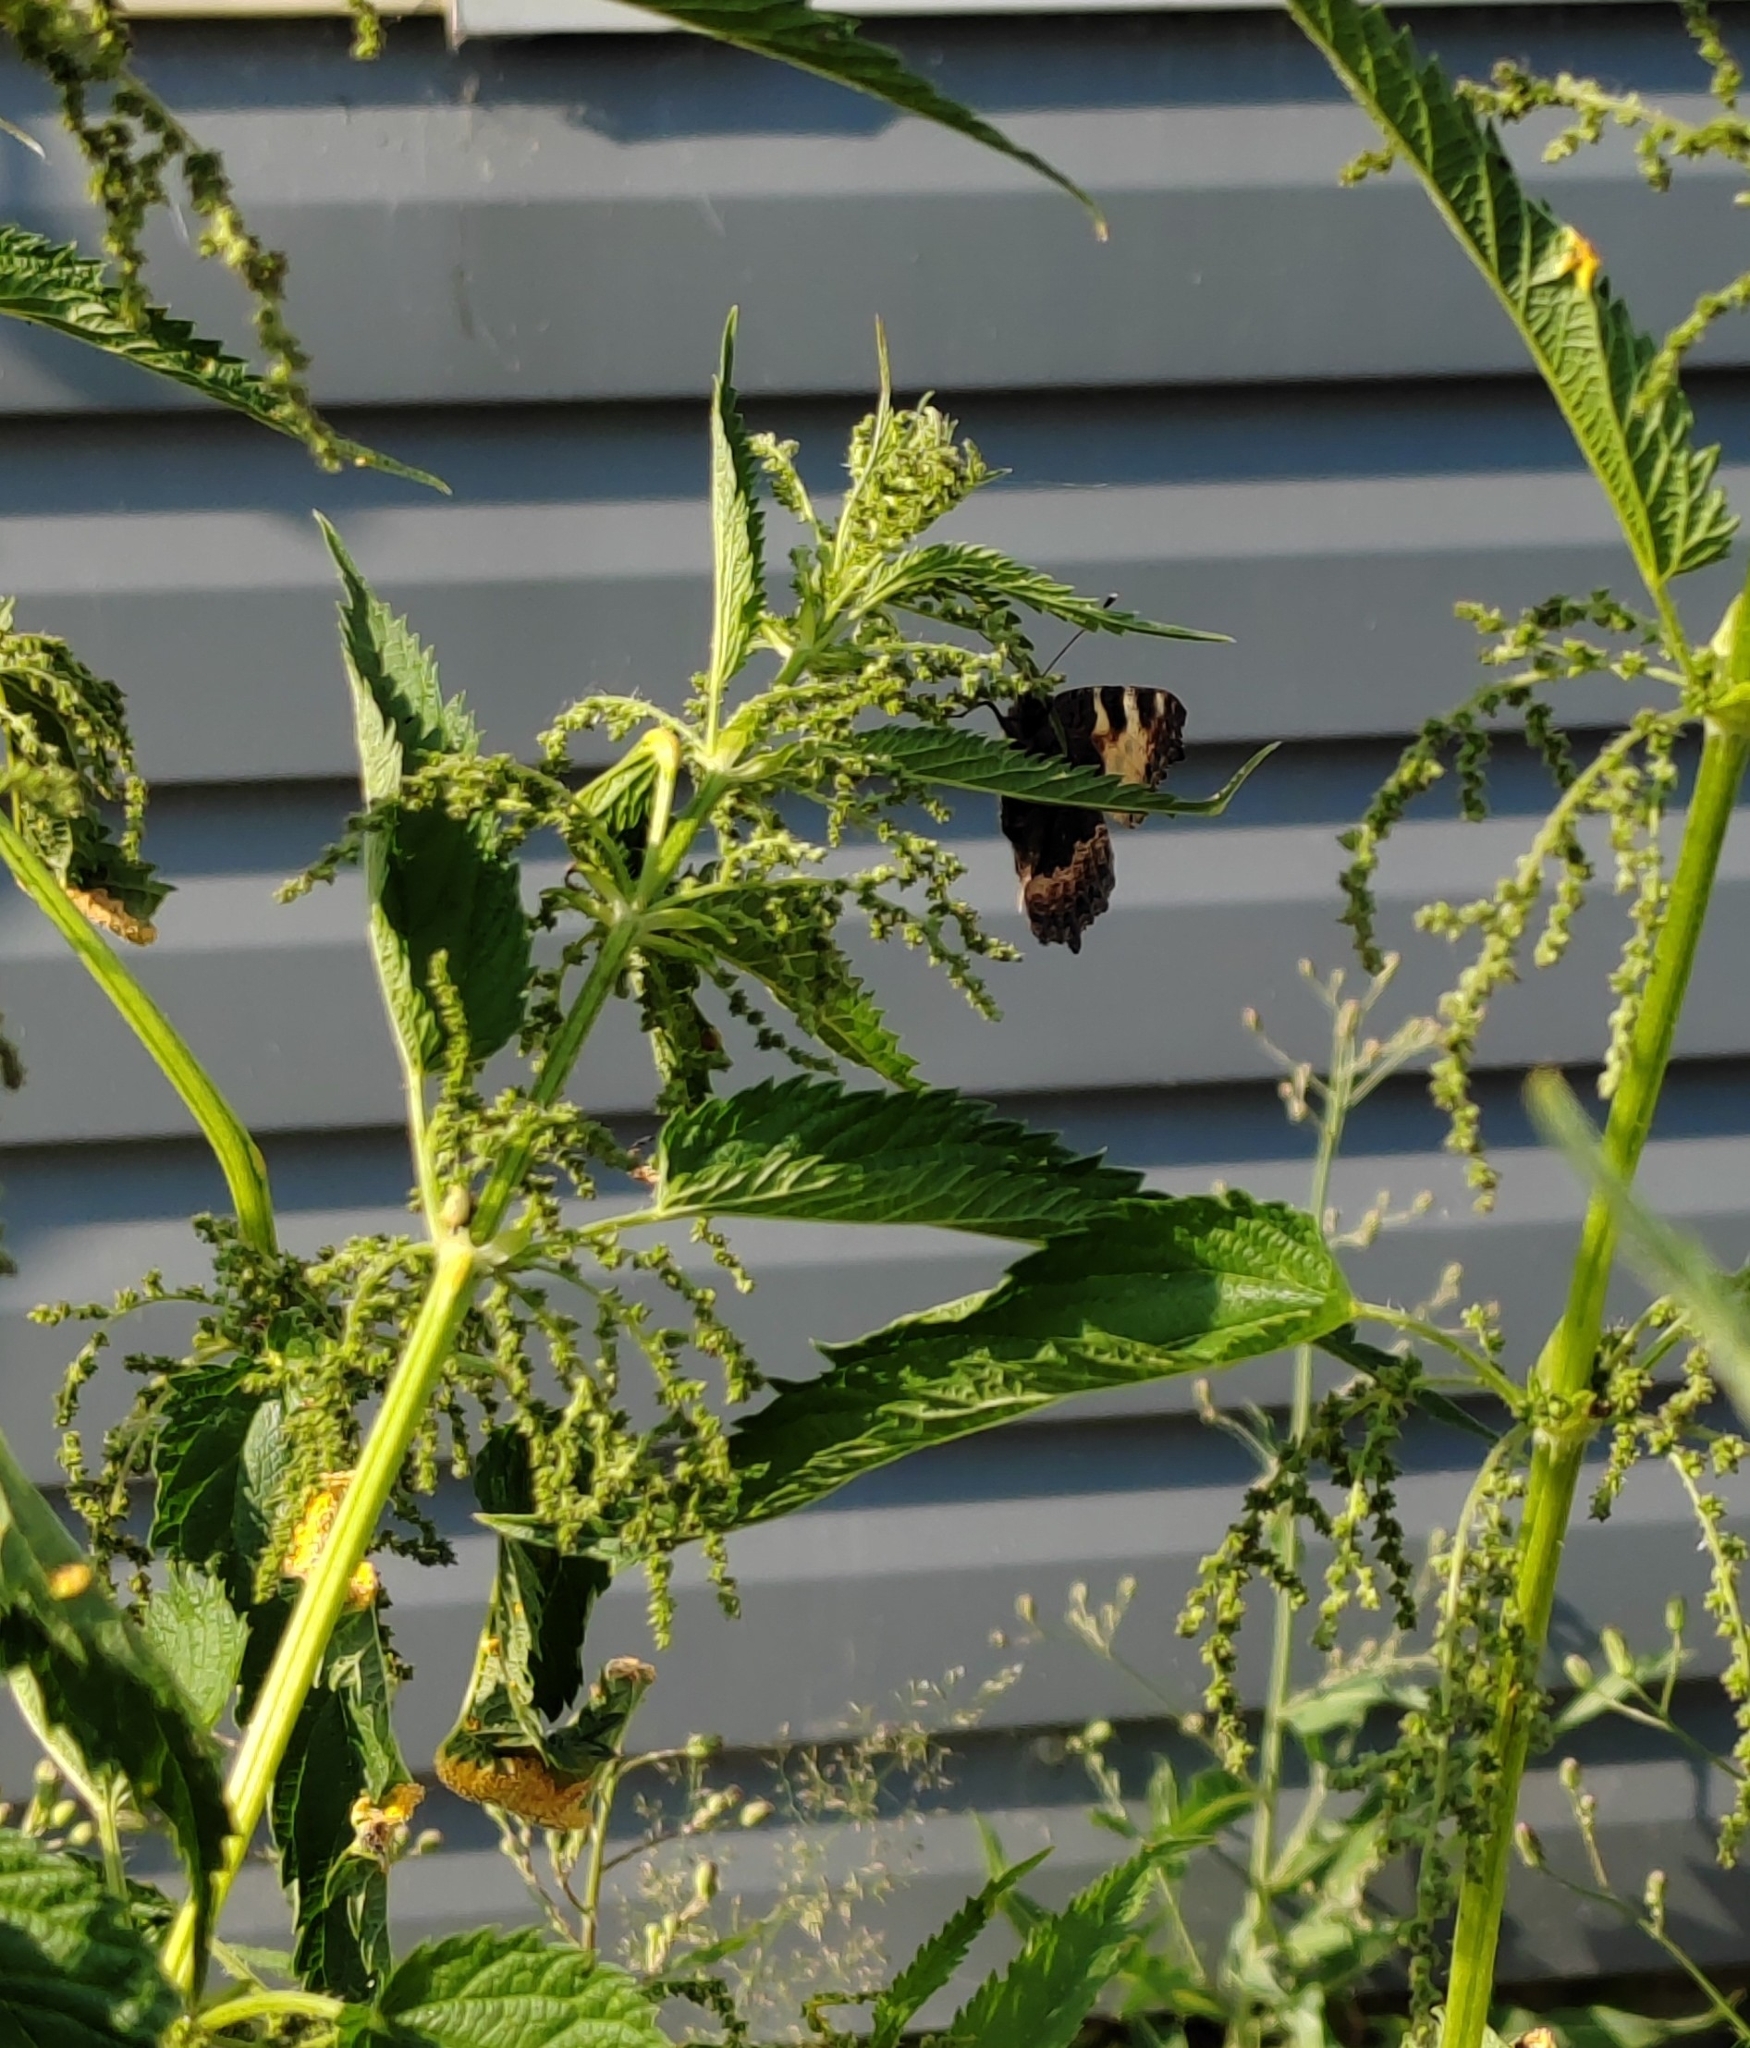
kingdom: Animalia
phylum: Arthropoda
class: Insecta
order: Lepidoptera
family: Nymphalidae
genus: Aglais
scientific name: Aglais urticae
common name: Small tortoiseshell
